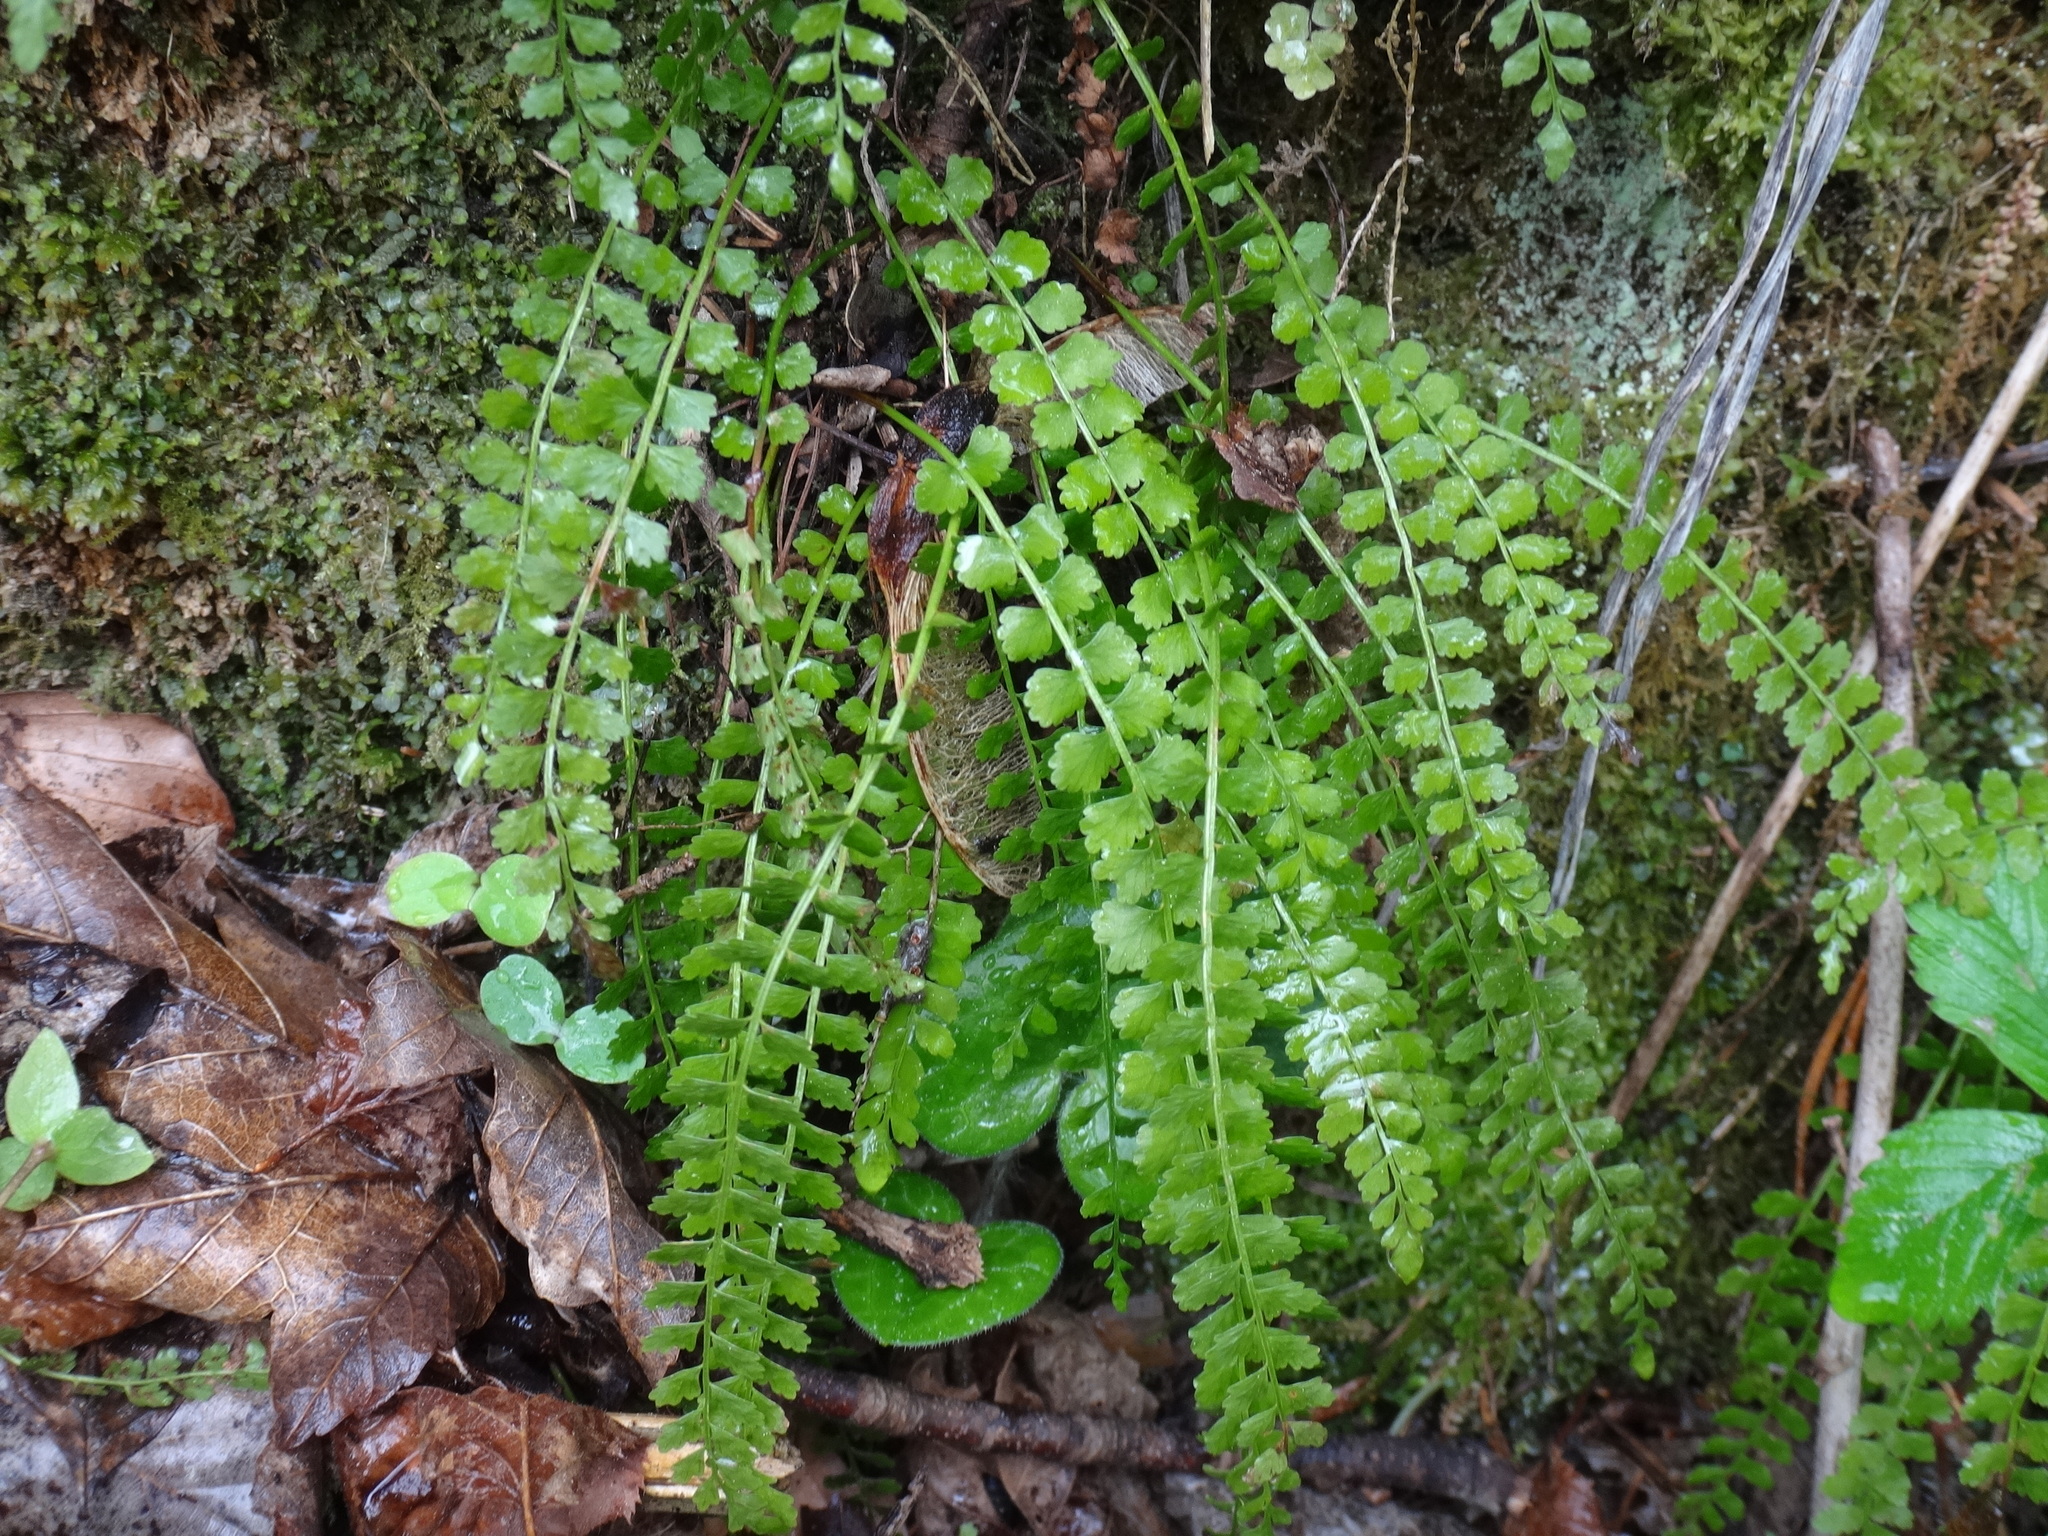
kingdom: Plantae
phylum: Tracheophyta
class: Polypodiopsida
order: Polypodiales
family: Aspleniaceae
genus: Asplenium
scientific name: Asplenium viride
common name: Green spleenwort
